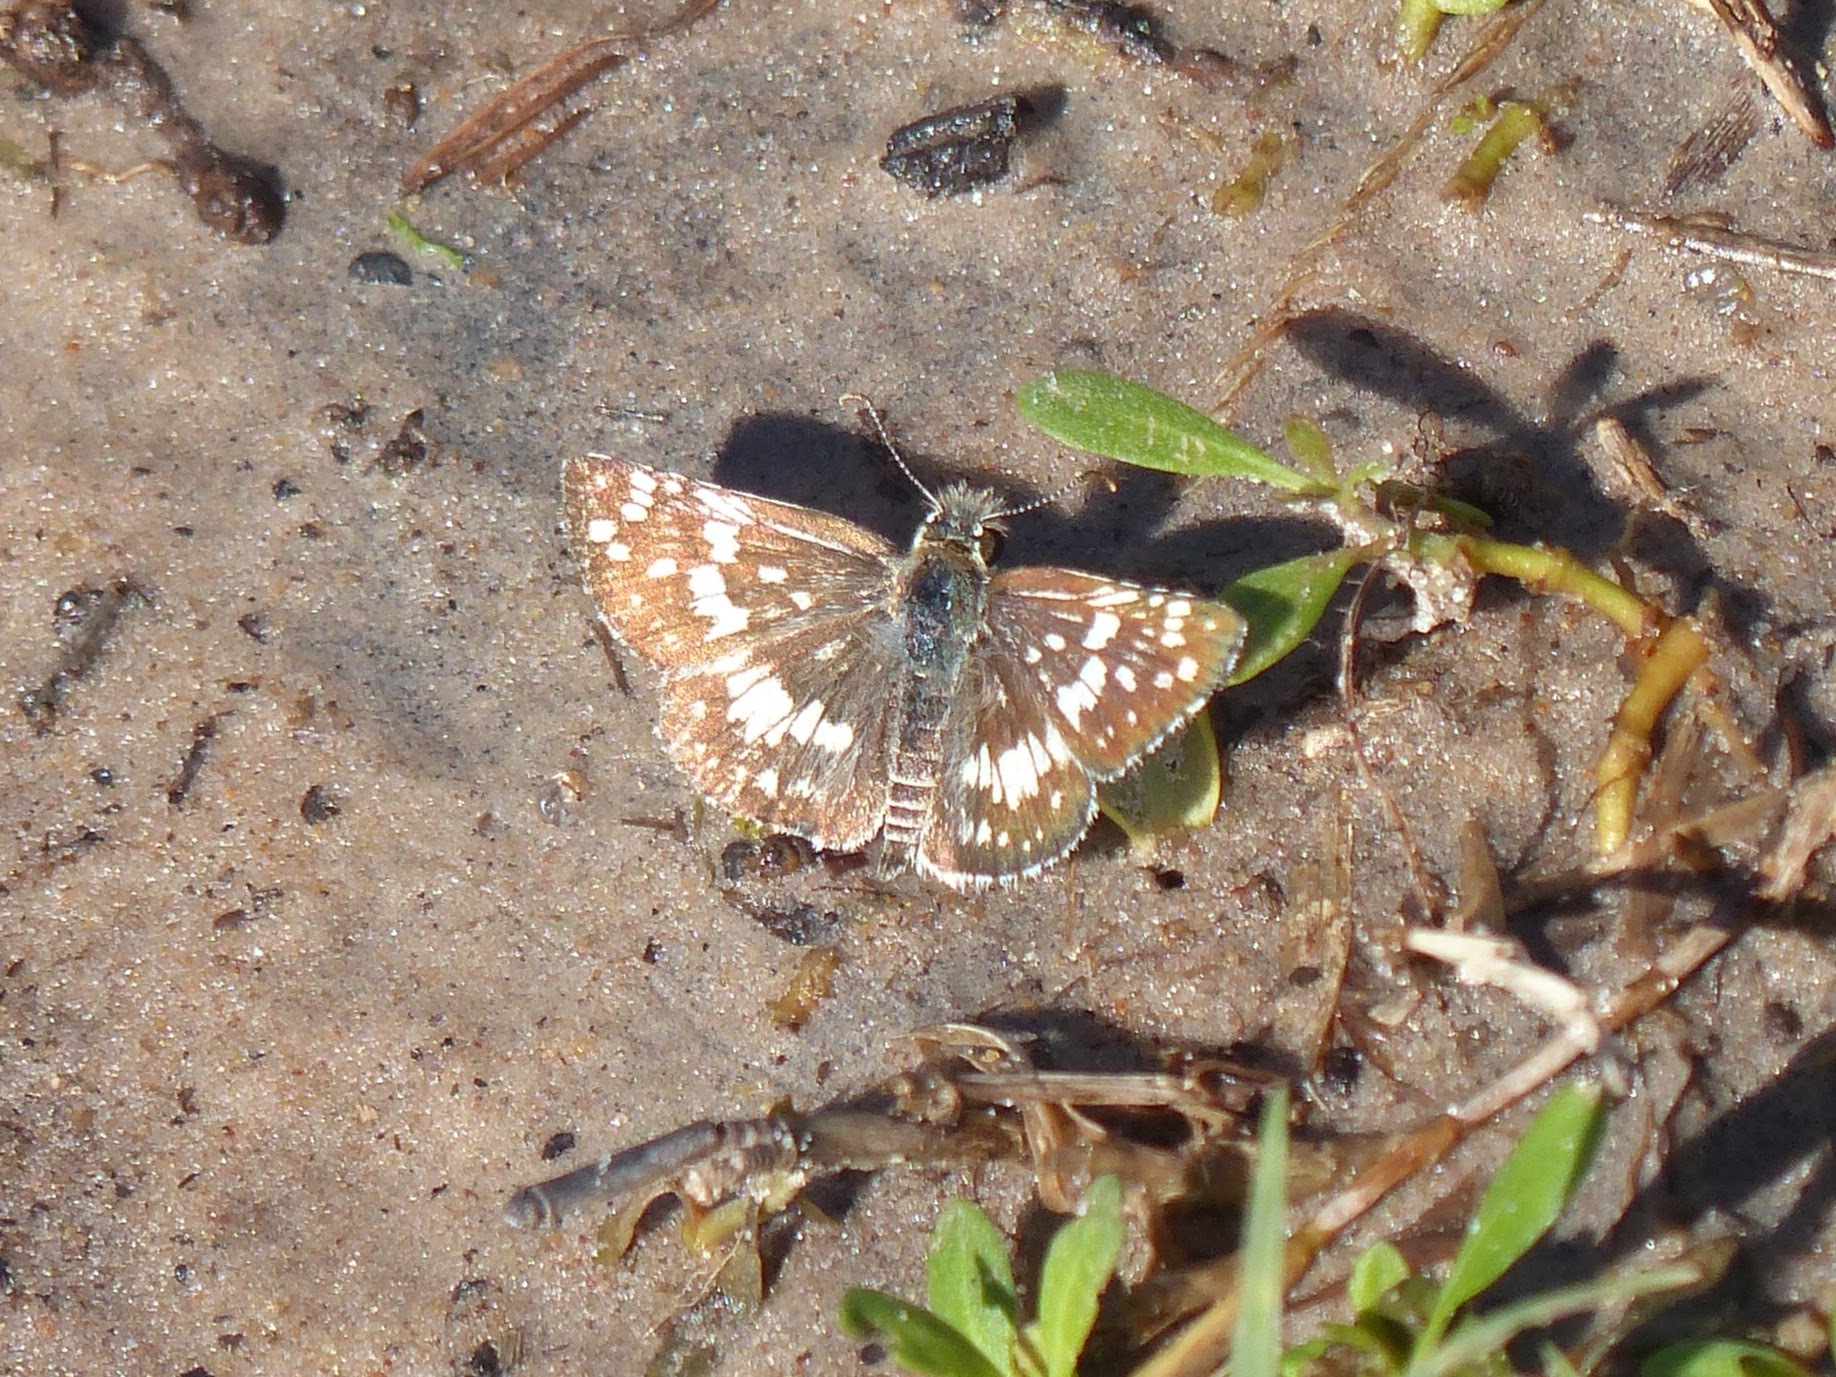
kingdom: Animalia
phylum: Arthropoda
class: Insecta
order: Lepidoptera
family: Hesperiidae
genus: Burnsius
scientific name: Burnsius orcynoides
